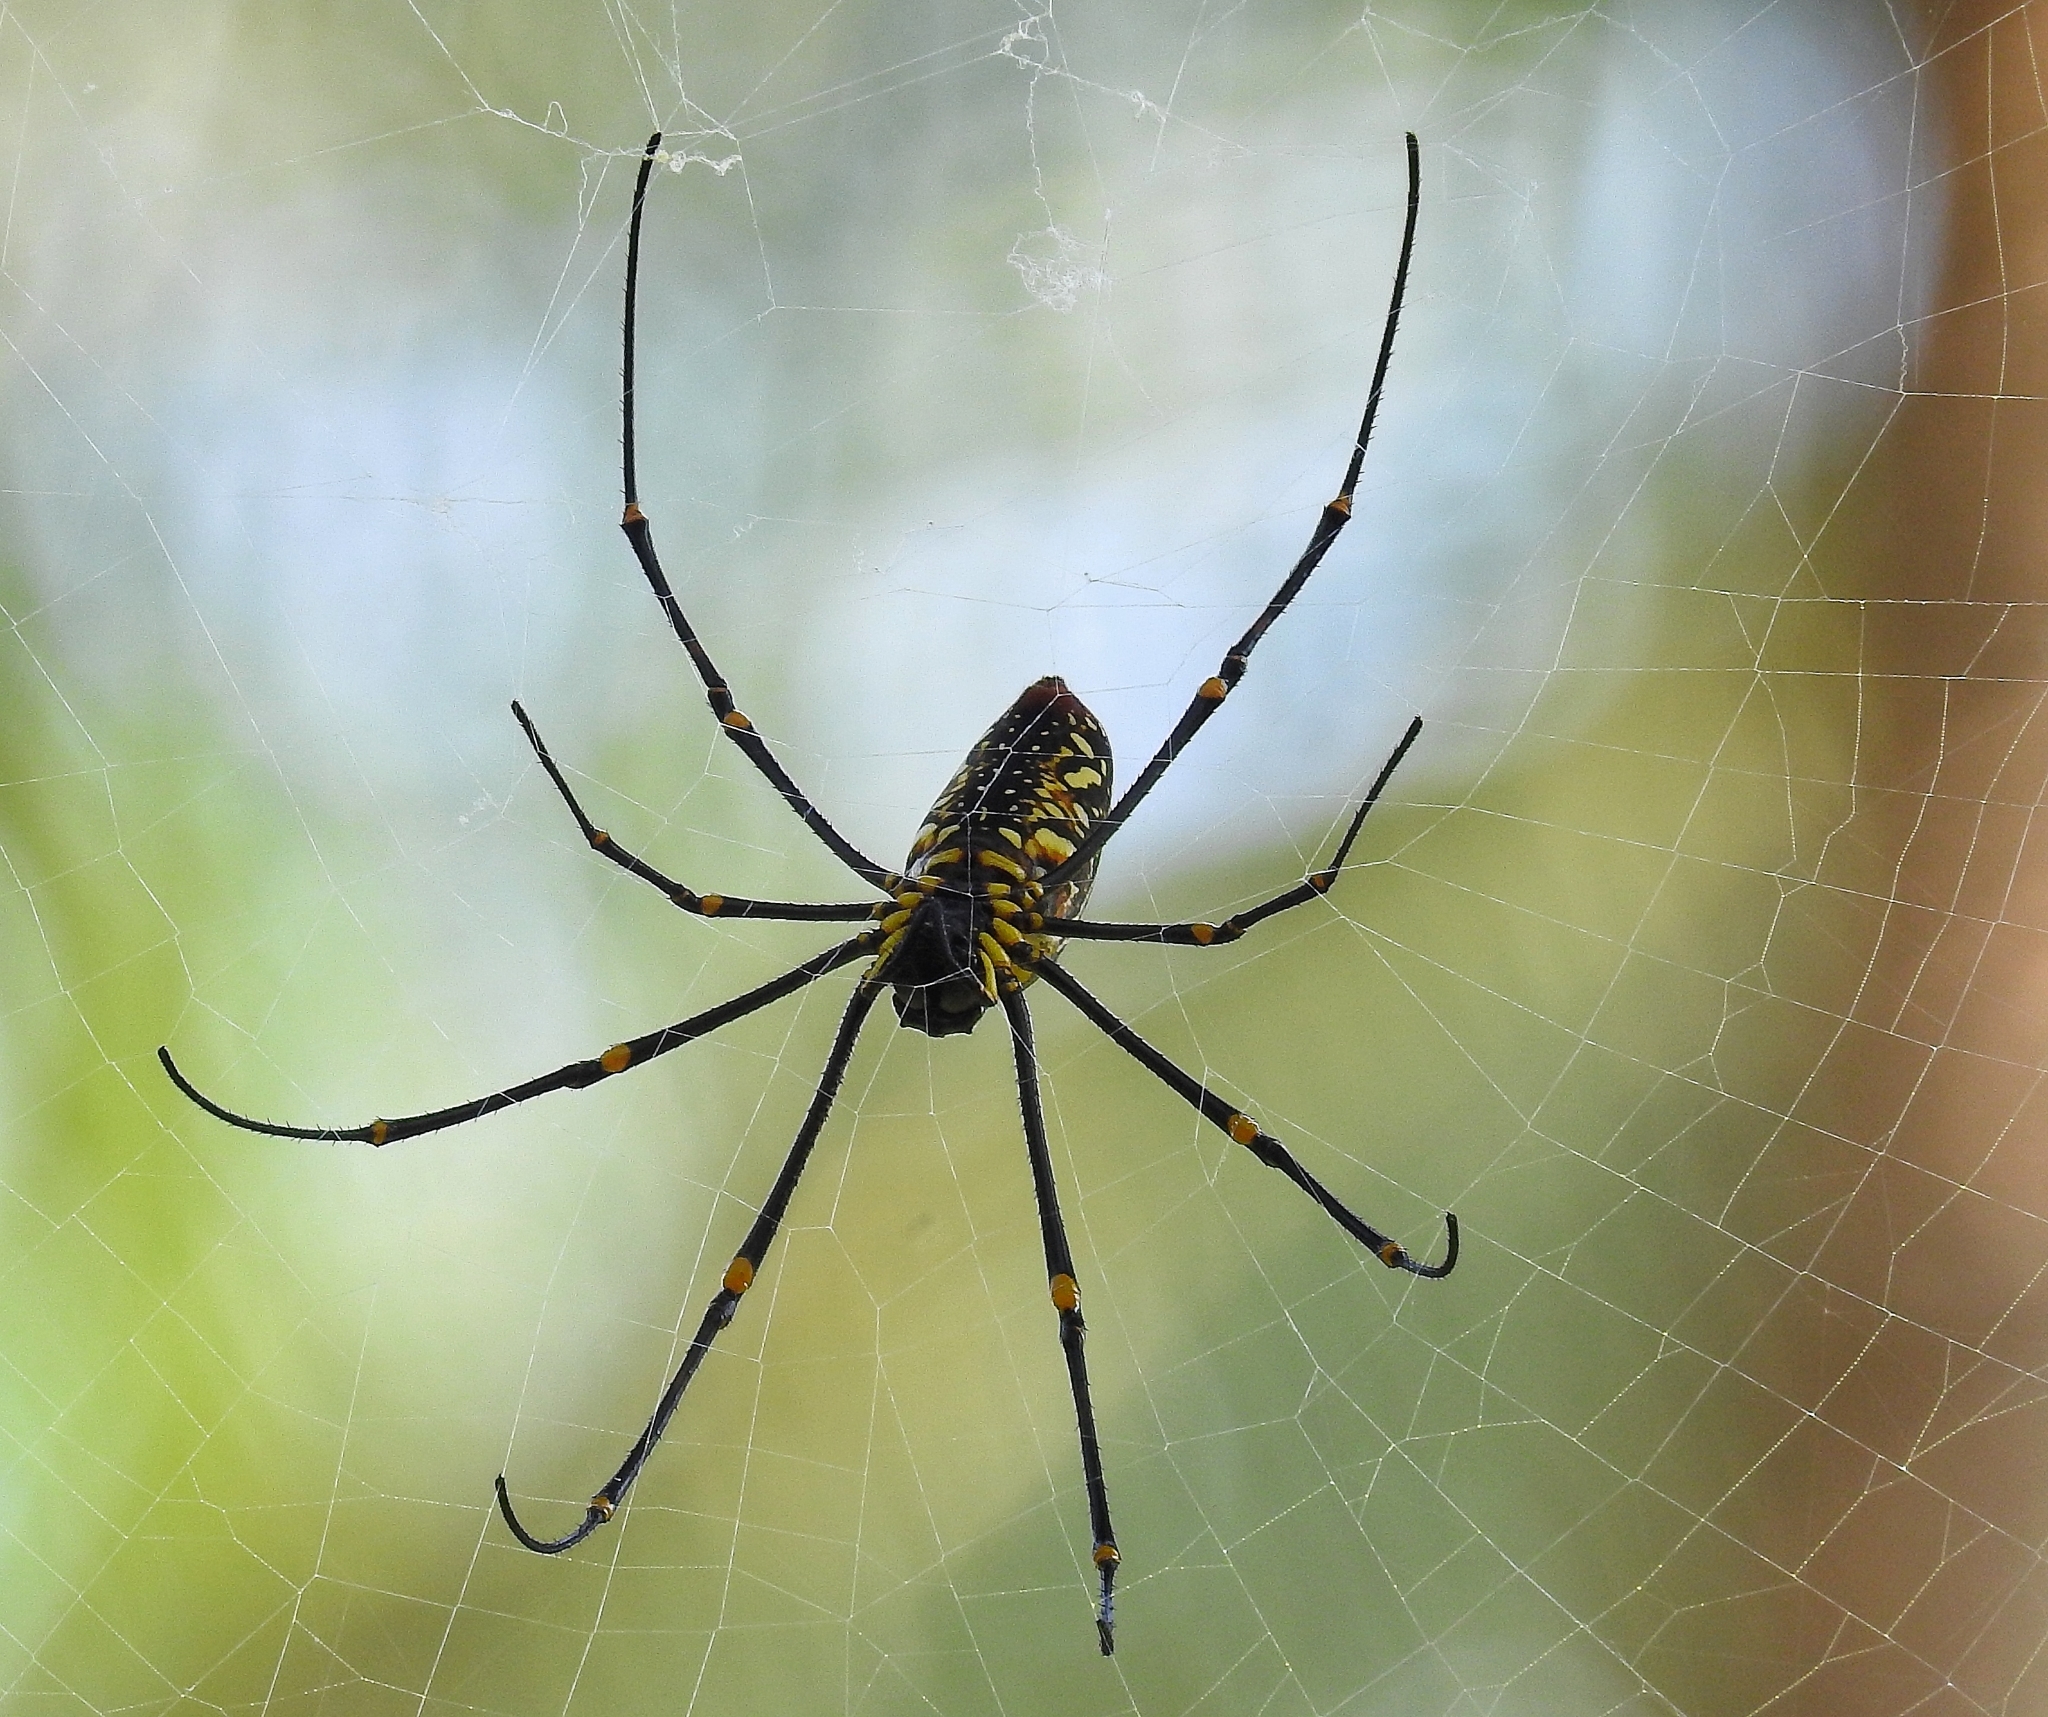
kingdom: Animalia
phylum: Arthropoda
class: Arachnida
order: Araneae
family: Araneidae
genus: Nephila
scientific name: Nephila pilipes
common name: Giant golden orb weaver
